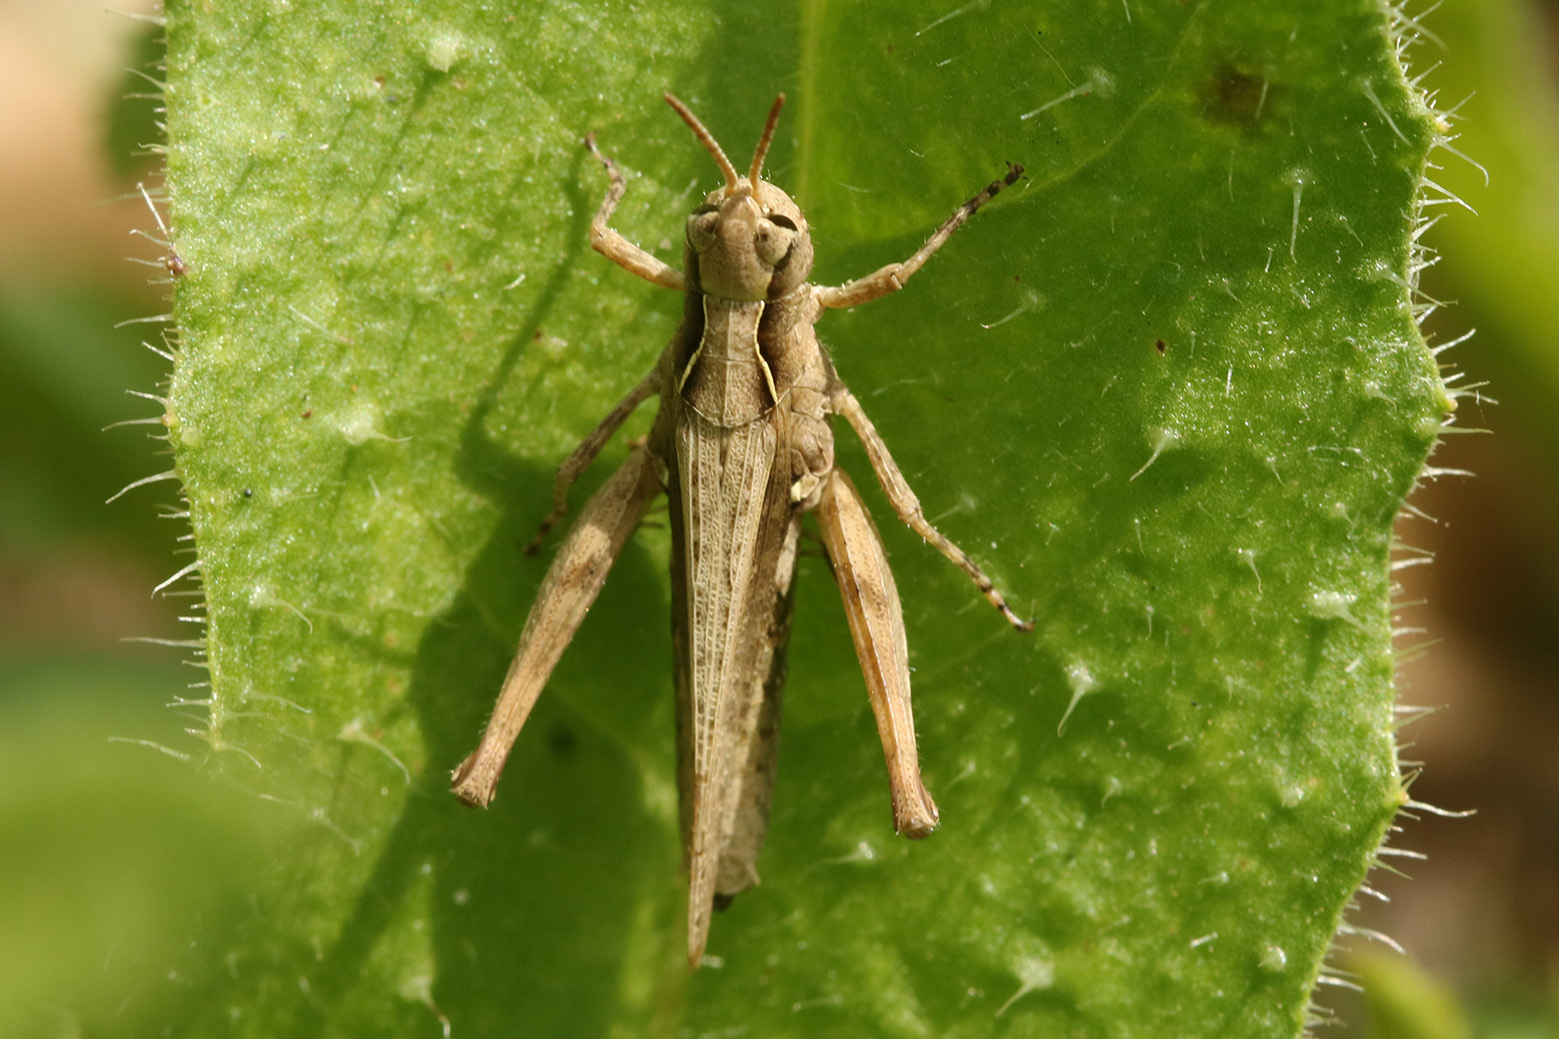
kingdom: Animalia
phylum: Arthropoda
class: Insecta
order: Orthoptera
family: Acrididae
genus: Orphulella
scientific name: Orphulella punctata
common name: Slant-faced grasshopper
